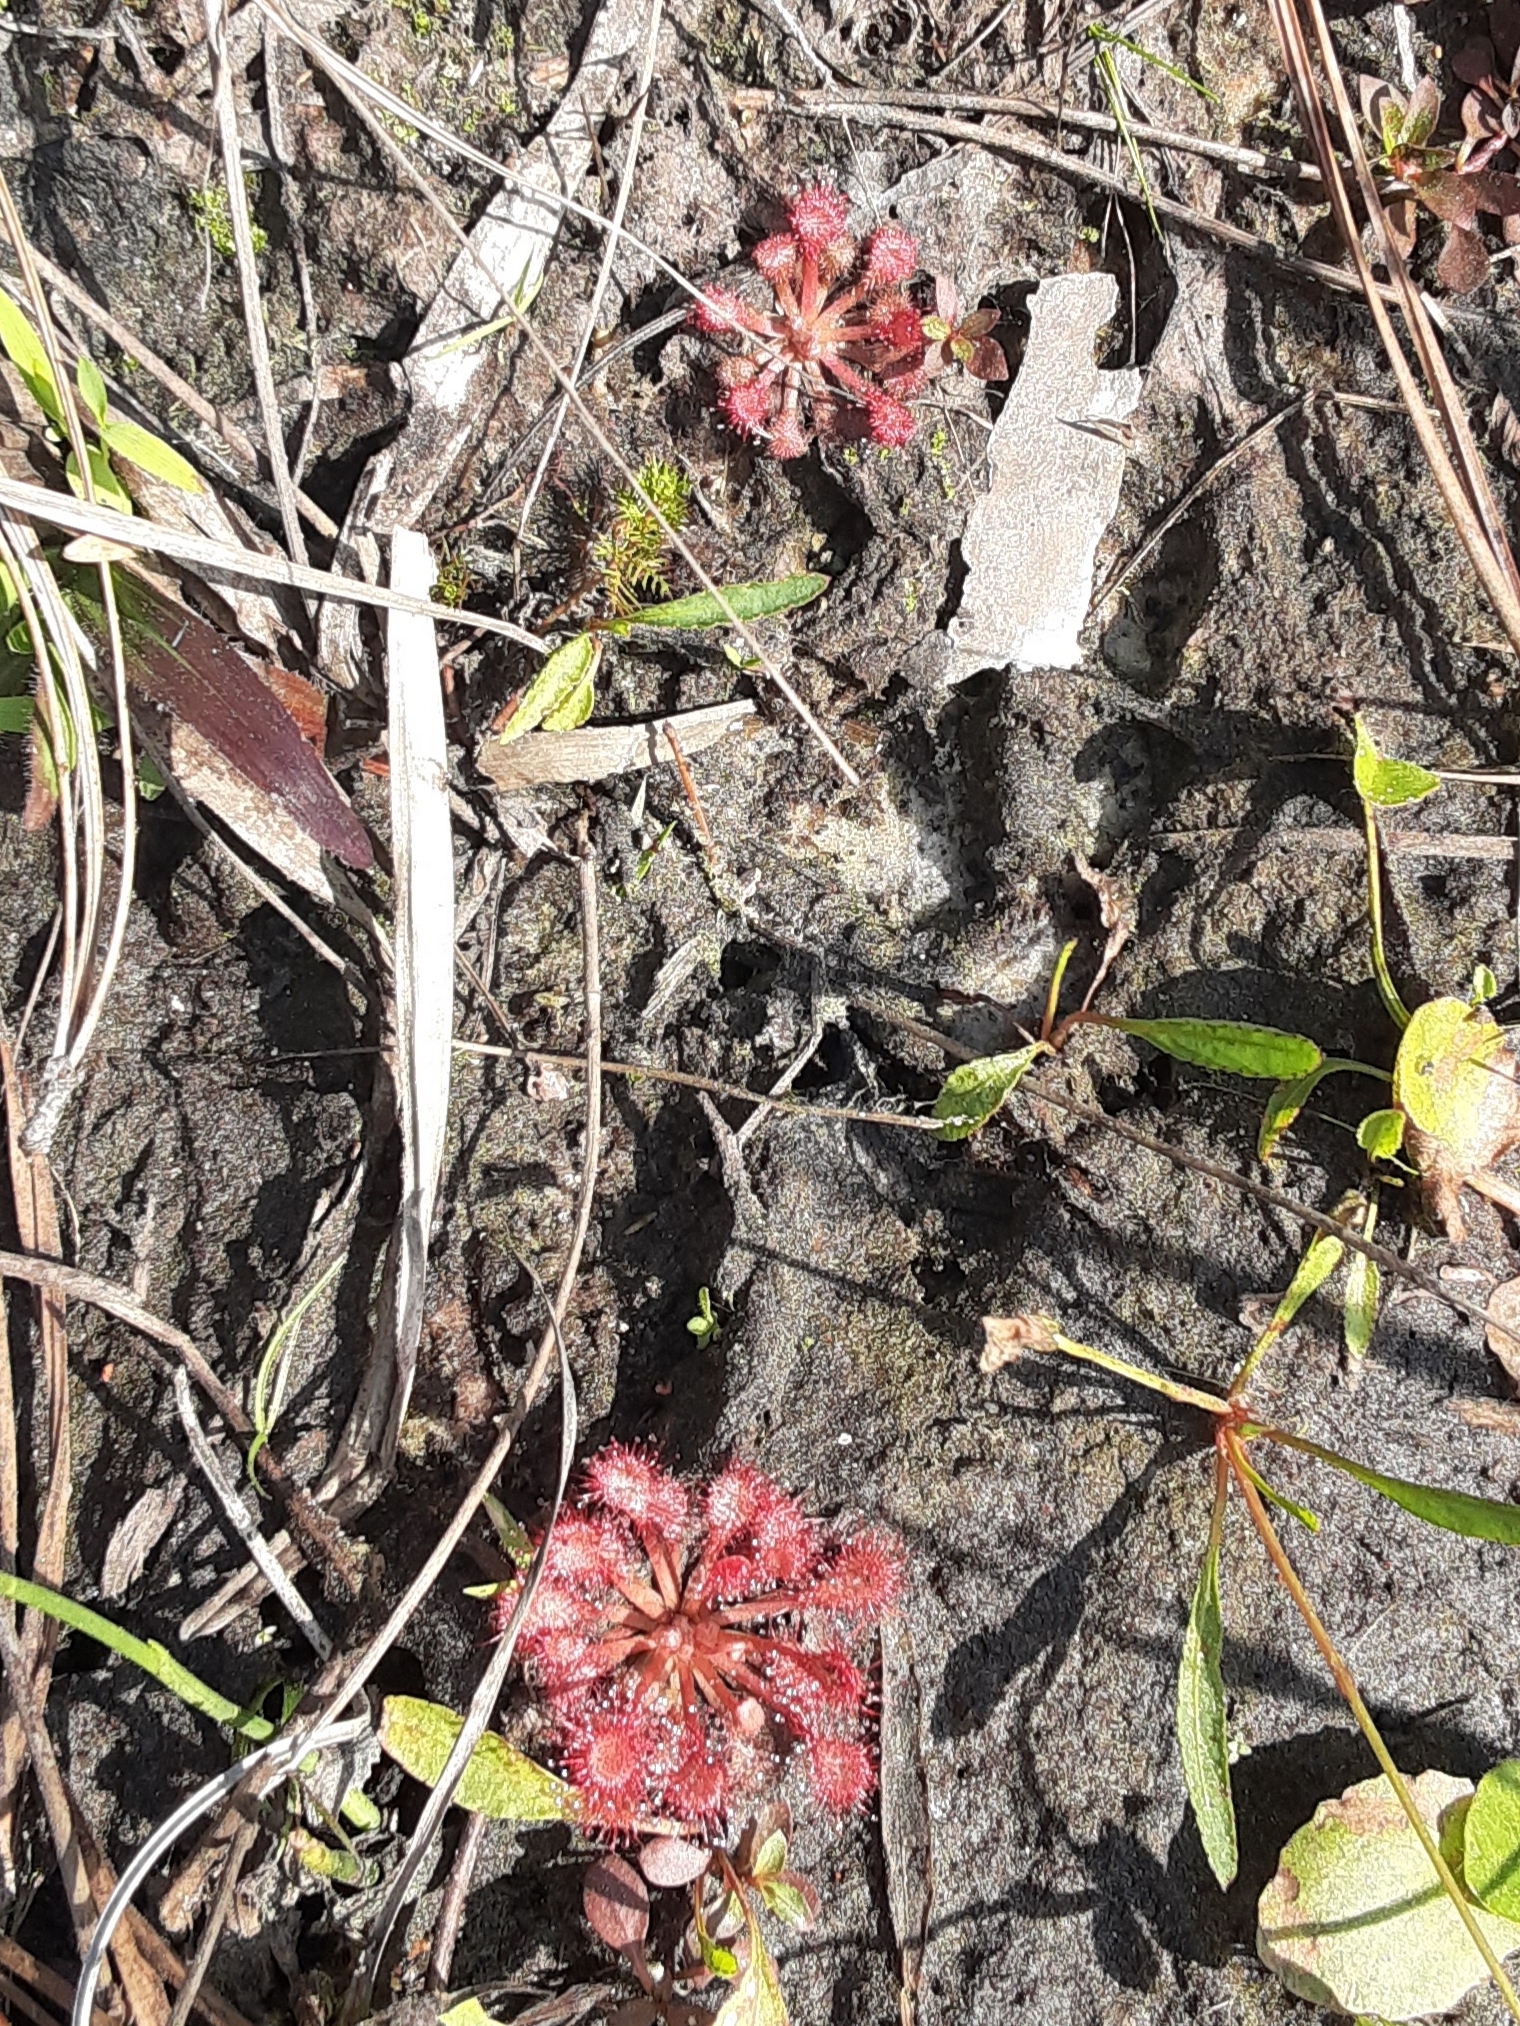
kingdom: Plantae
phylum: Tracheophyta
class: Magnoliopsida
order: Caryophyllales
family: Droseraceae
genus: Drosera
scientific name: Drosera capillaris
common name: Pink sundew
